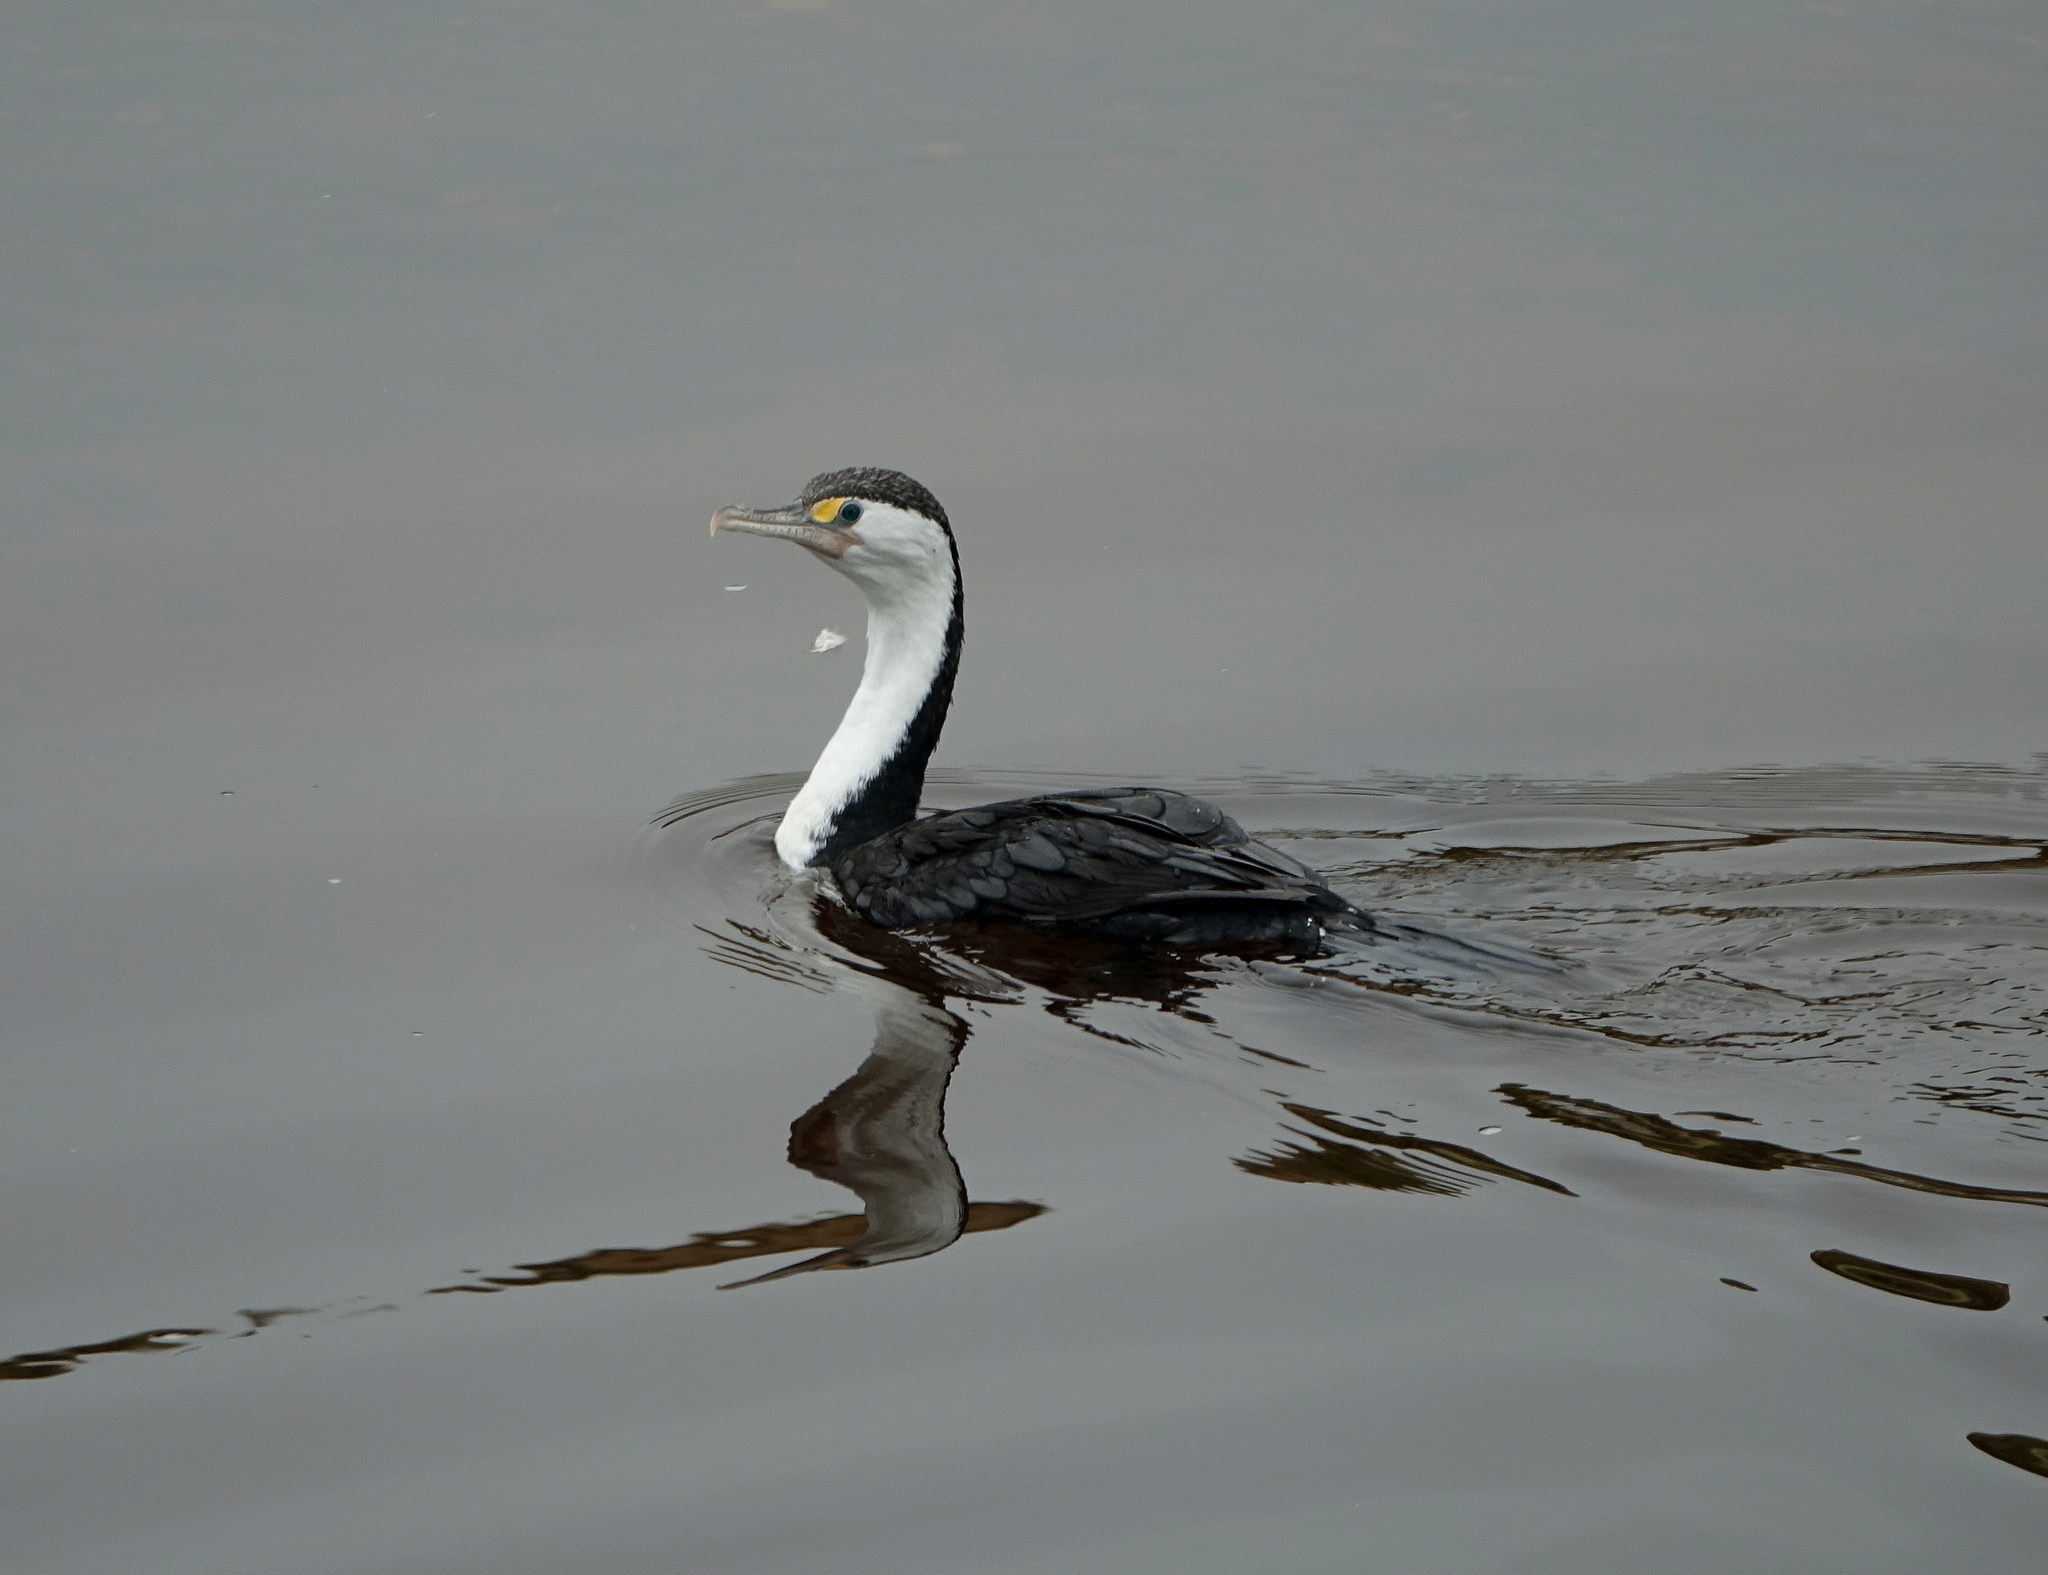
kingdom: Animalia
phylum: Chordata
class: Aves
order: Suliformes
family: Phalacrocoracidae
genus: Phalacrocorax
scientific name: Phalacrocorax varius
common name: Pied cormorant
